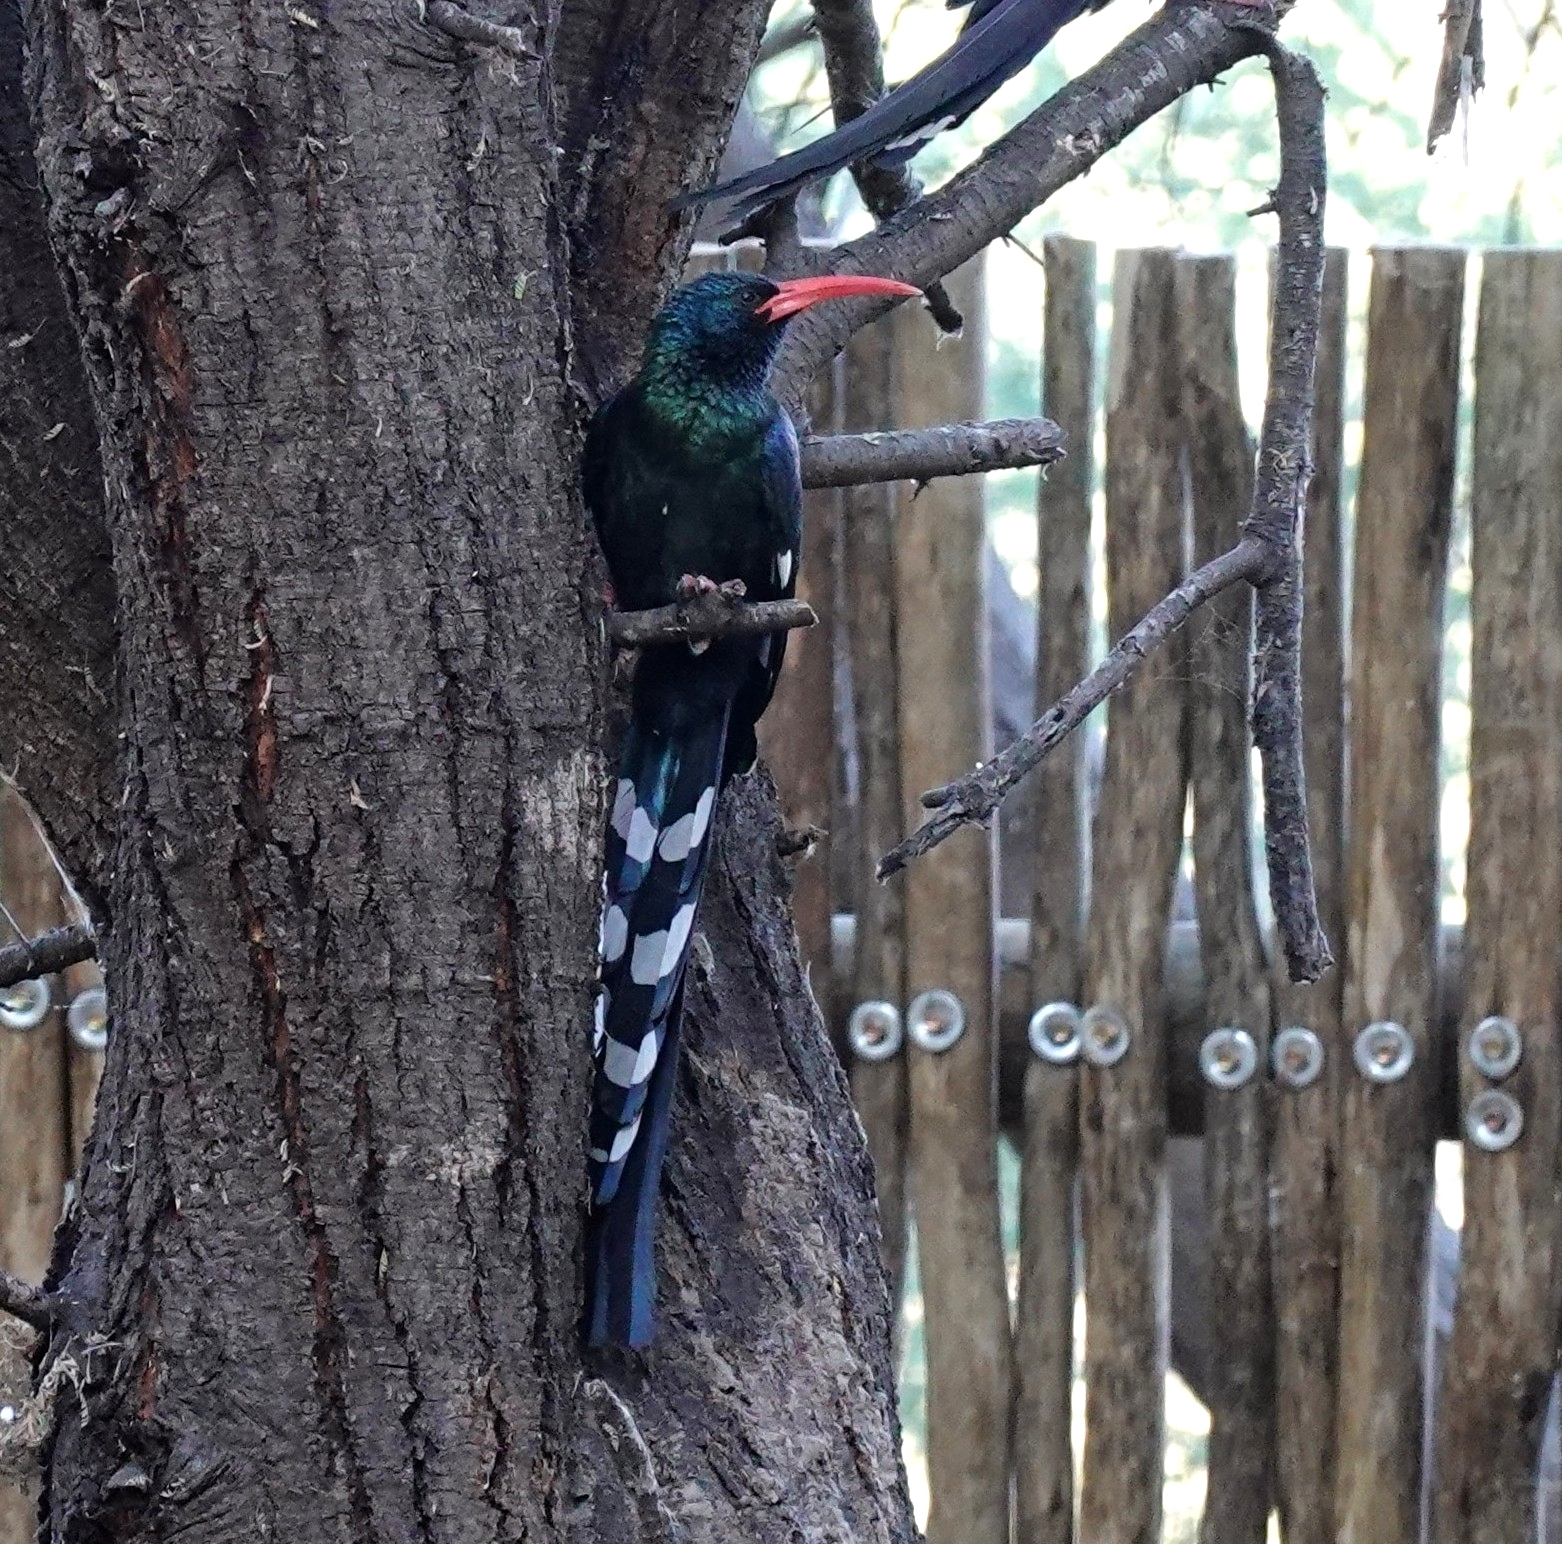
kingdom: Animalia
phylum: Chordata
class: Aves
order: Bucerotiformes
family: Phoeniculidae
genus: Phoeniculus
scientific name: Phoeniculus purpureus
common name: Green woodhoopoe
